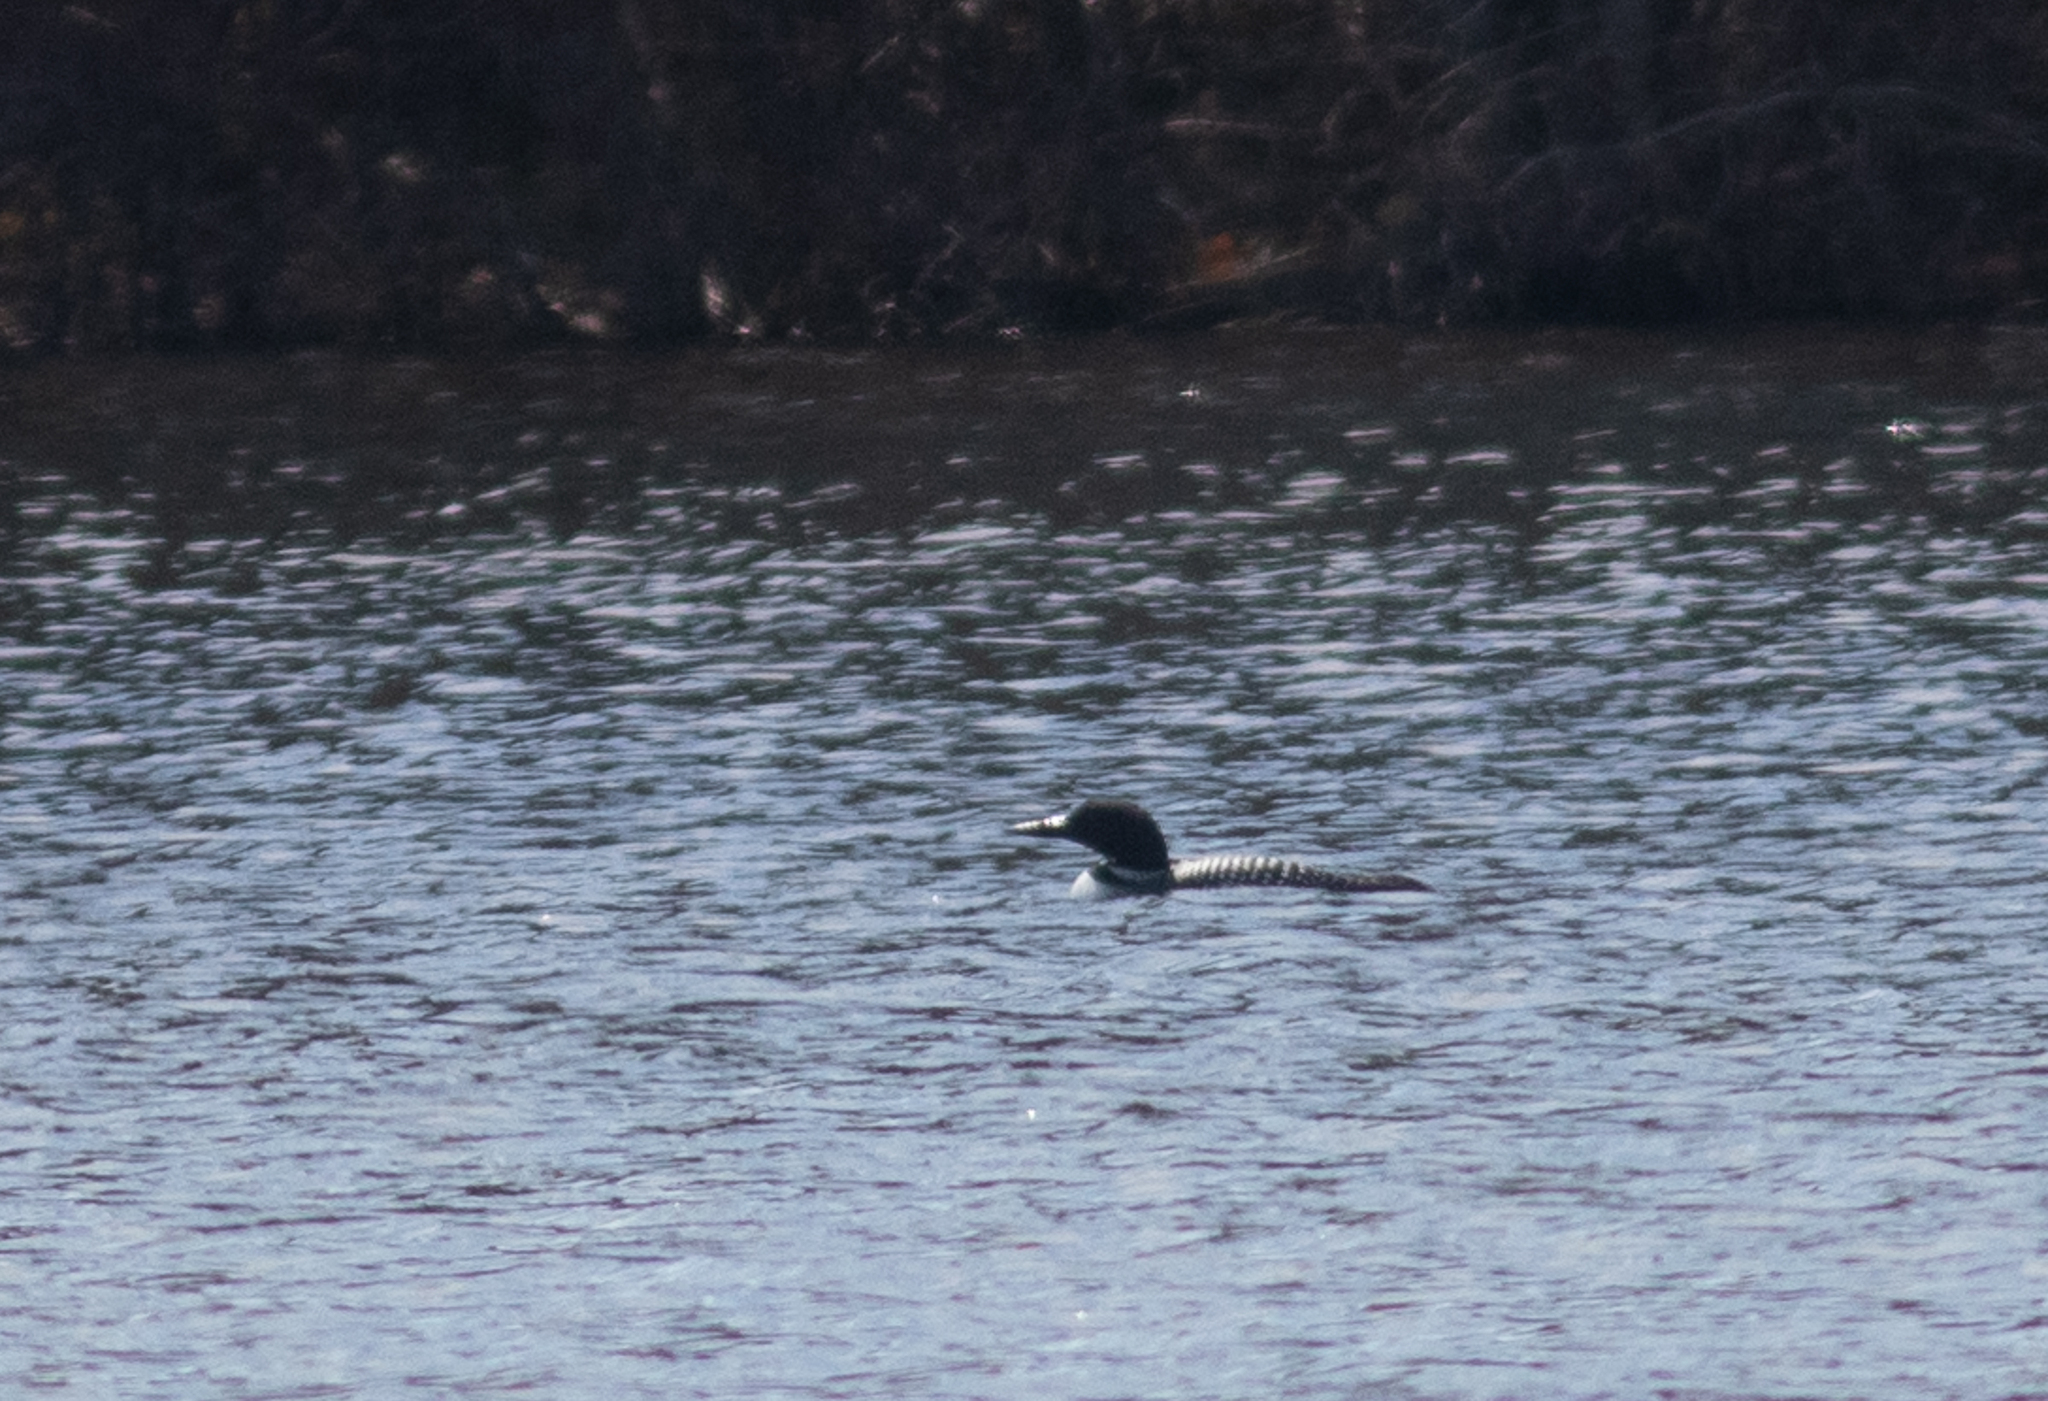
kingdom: Animalia
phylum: Chordata
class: Aves
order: Gaviiformes
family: Gaviidae
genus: Gavia
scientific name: Gavia immer
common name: Common loon
